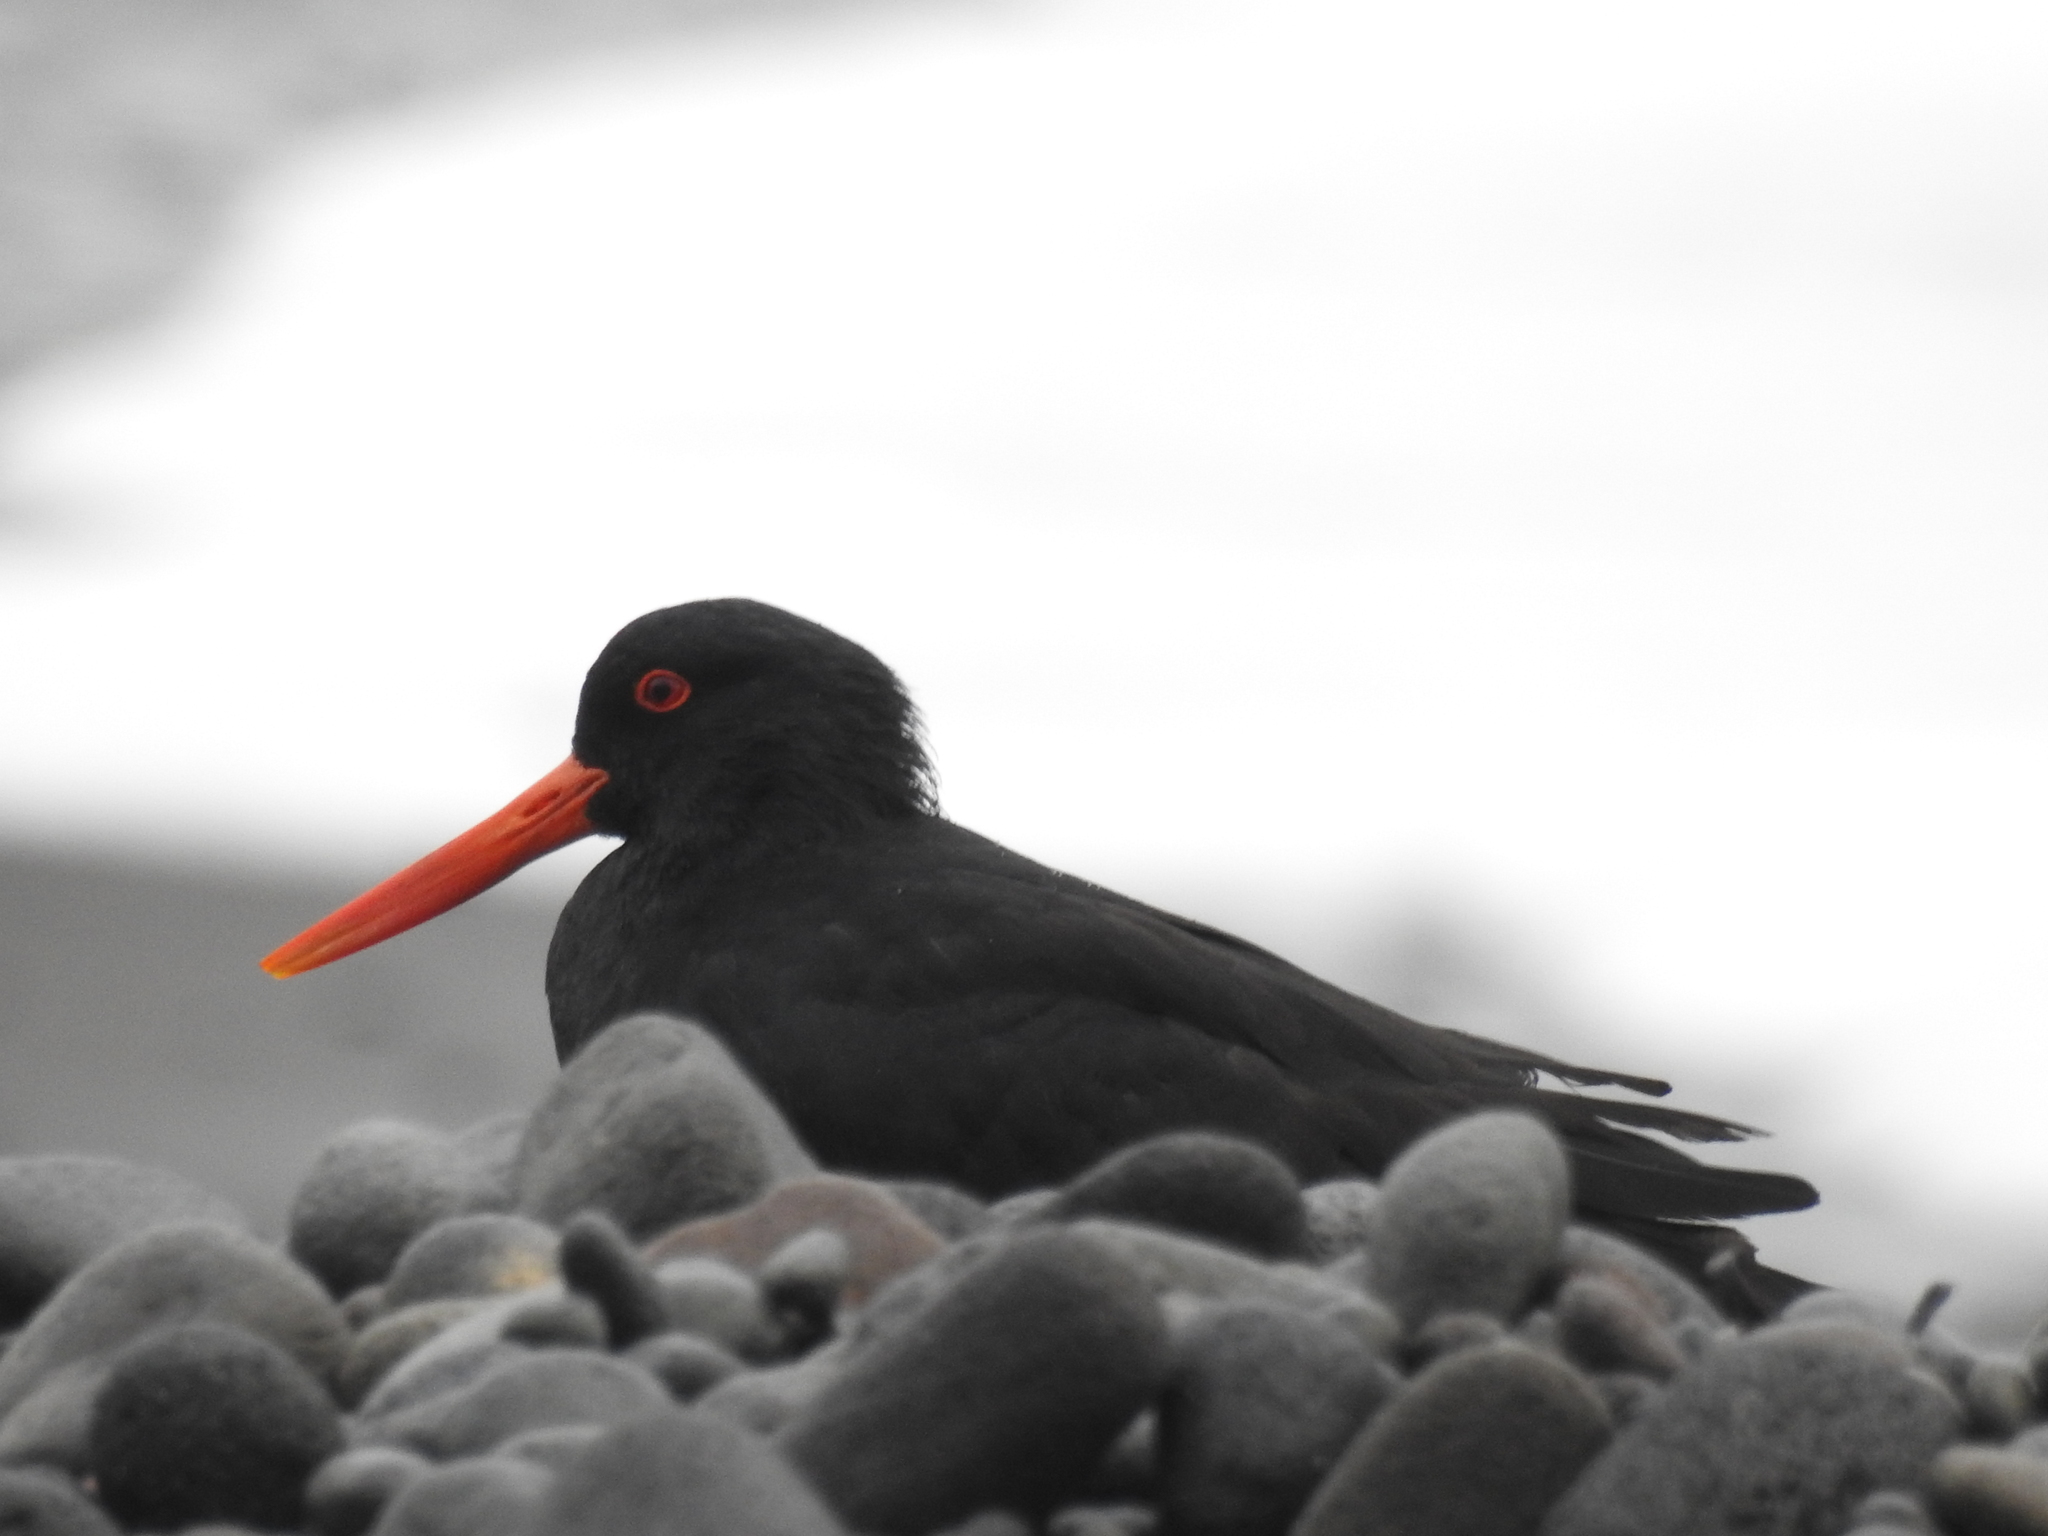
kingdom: Animalia
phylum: Chordata
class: Aves
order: Charadriiformes
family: Haematopodidae
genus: Haematopus
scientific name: Haematopus unicolor
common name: Variable oystercatcher
